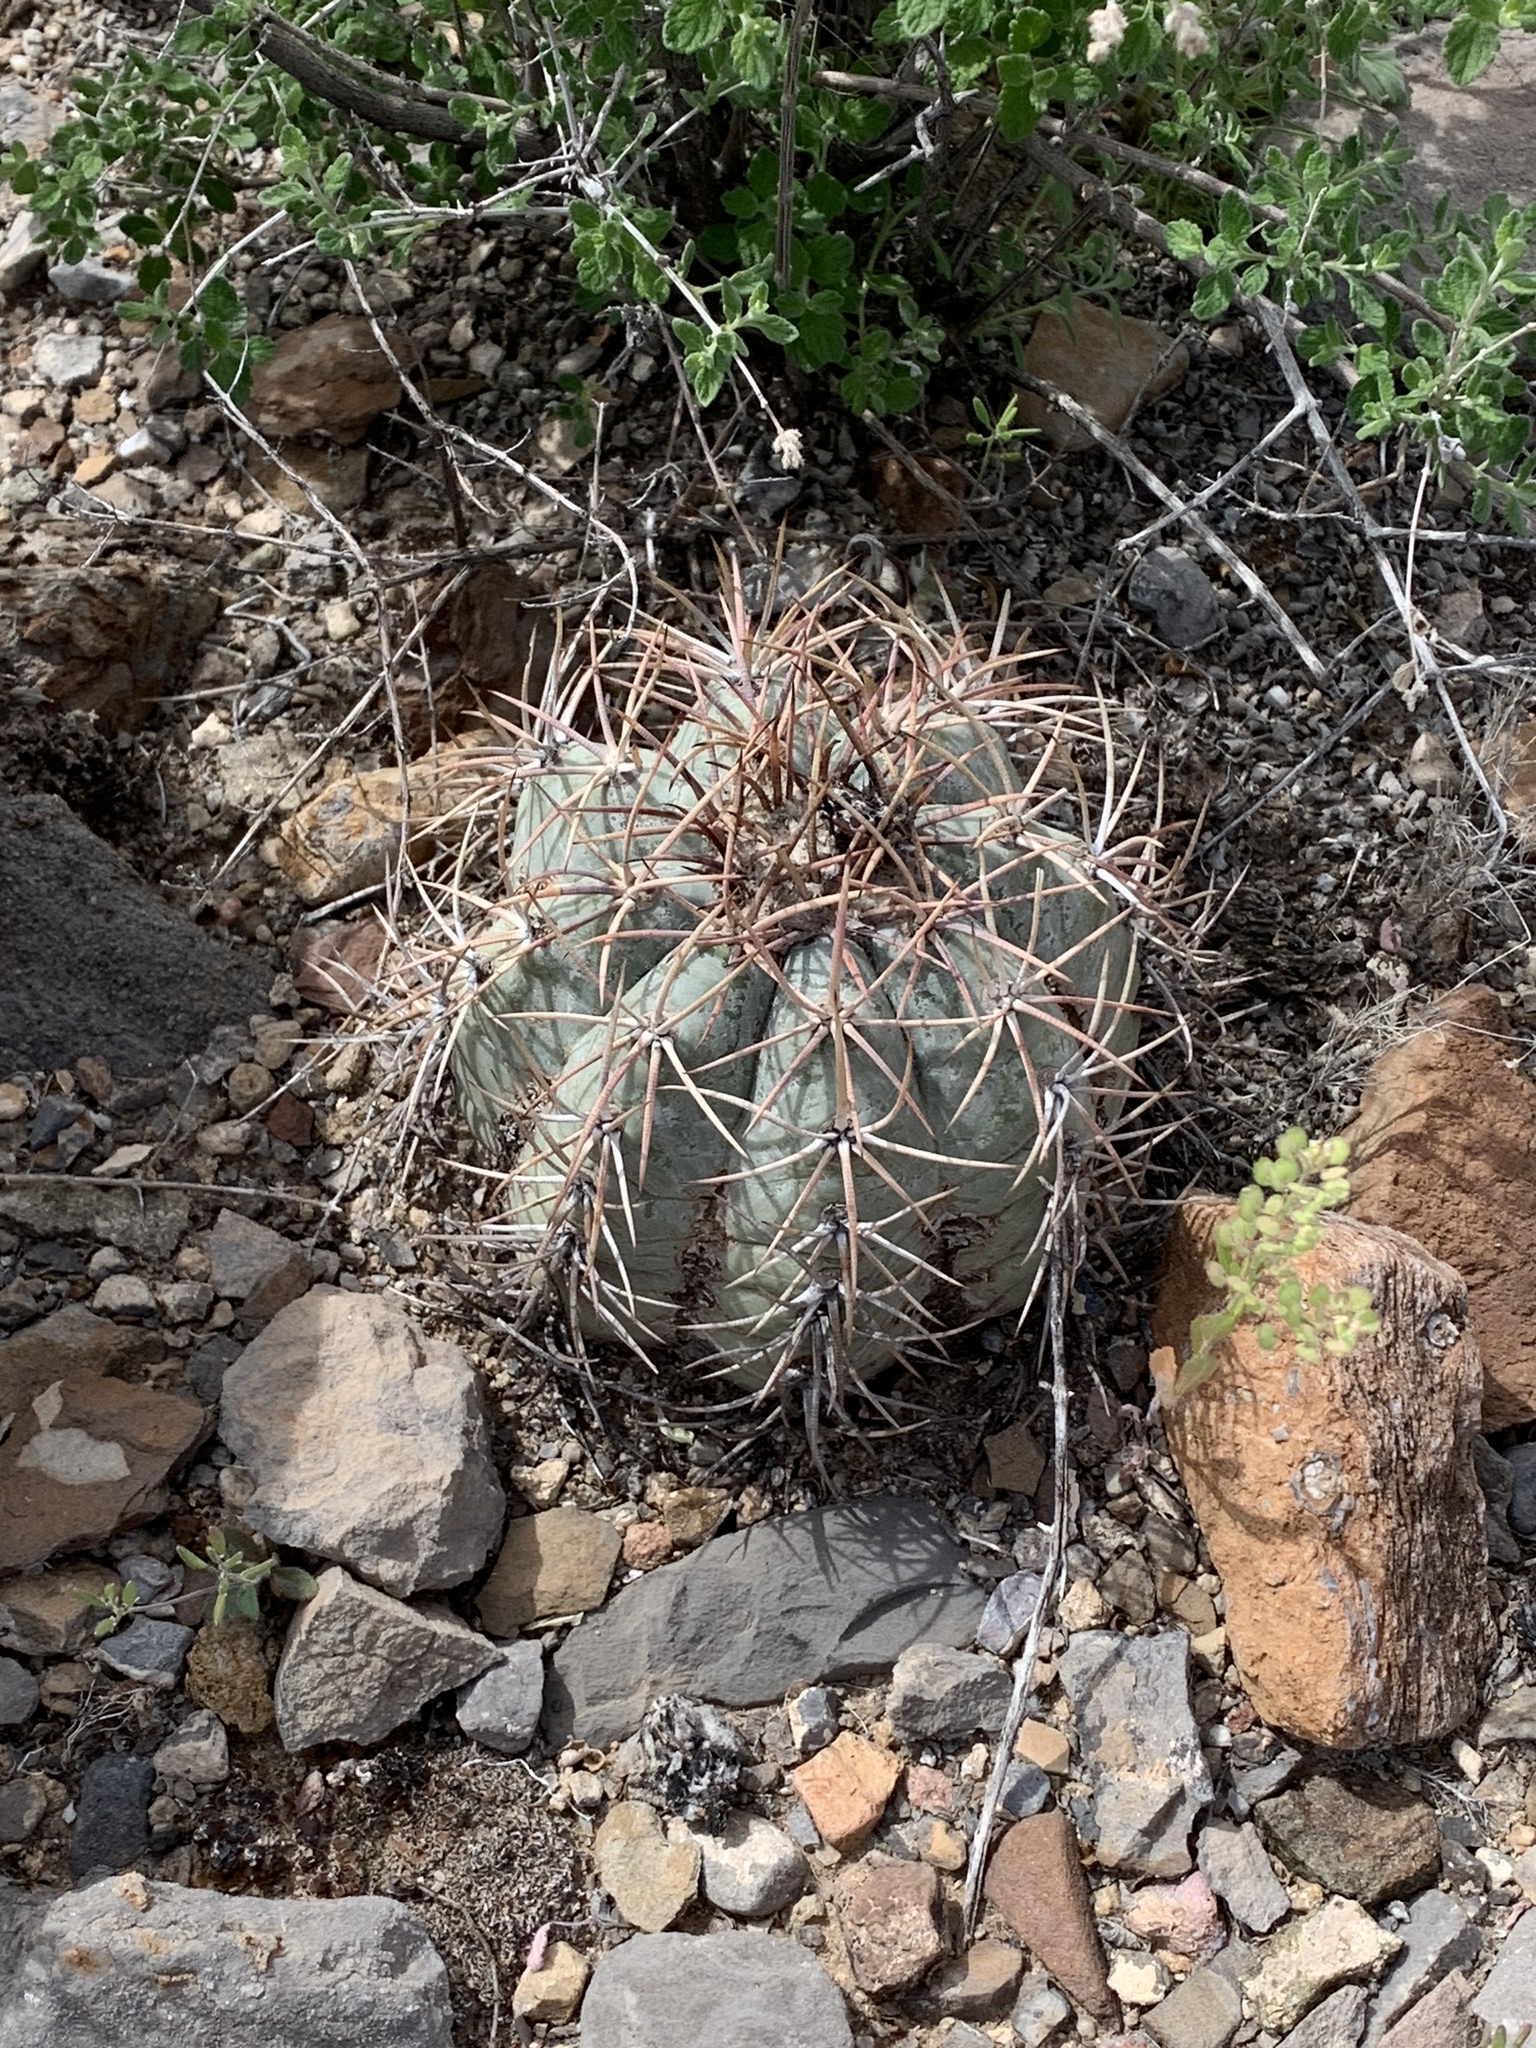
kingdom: Plantae
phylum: Tracheophyta
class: Magnoliopsida
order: Caryophyllales
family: Cactaceae
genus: Echinocactus
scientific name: Echinocactus horizonthalonius
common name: Devilshead
